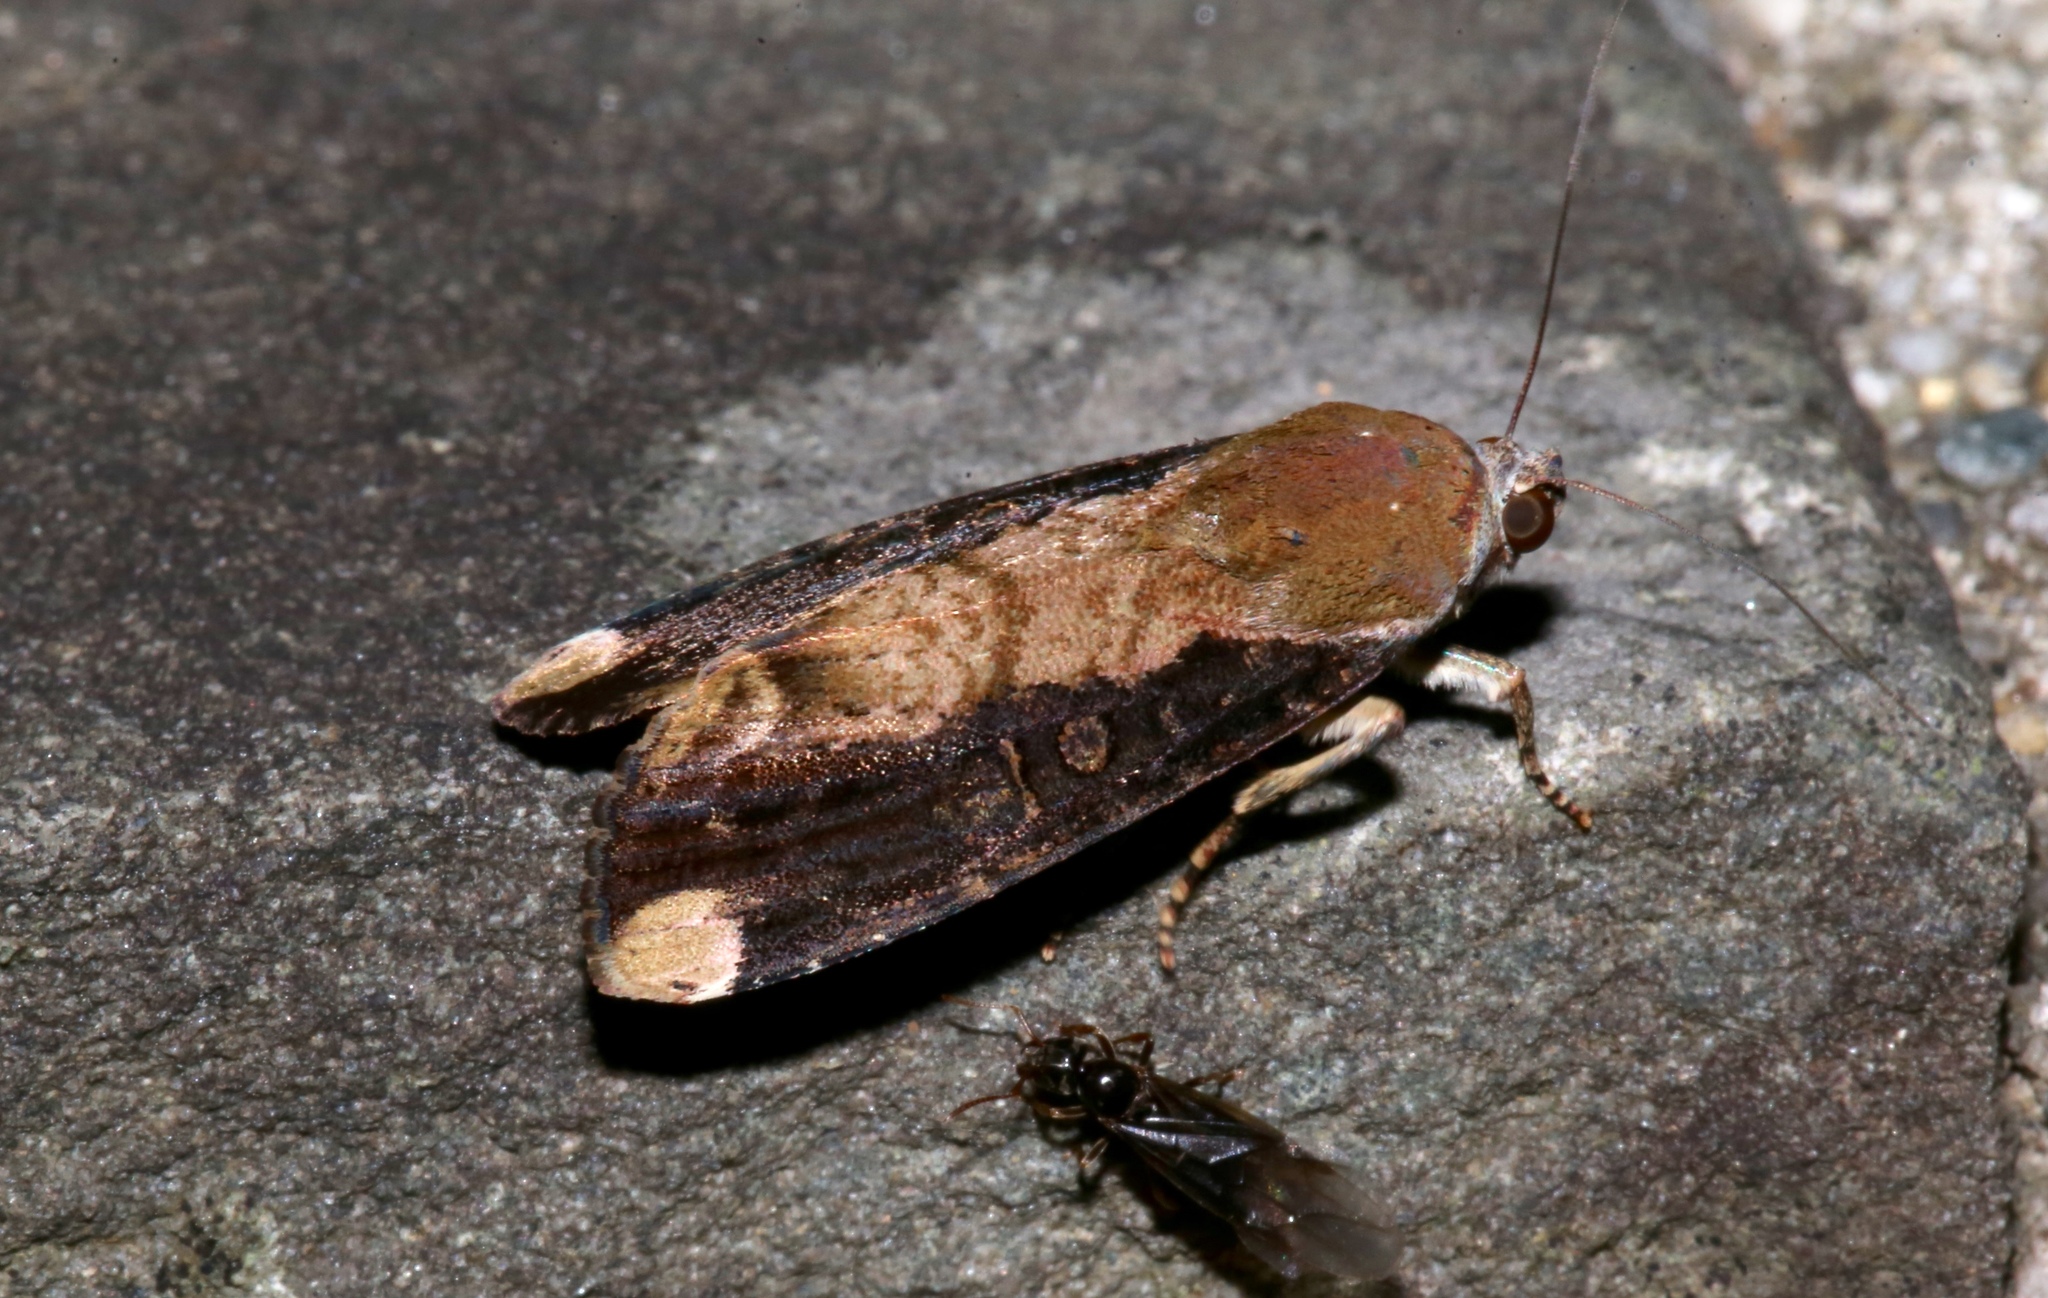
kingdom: Animalia
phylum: Arthropoda
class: Insecta
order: Lepidoptera
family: Noctuidae
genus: Magusa
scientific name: Magusa divaricata
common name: Orb narrow-winged moth
